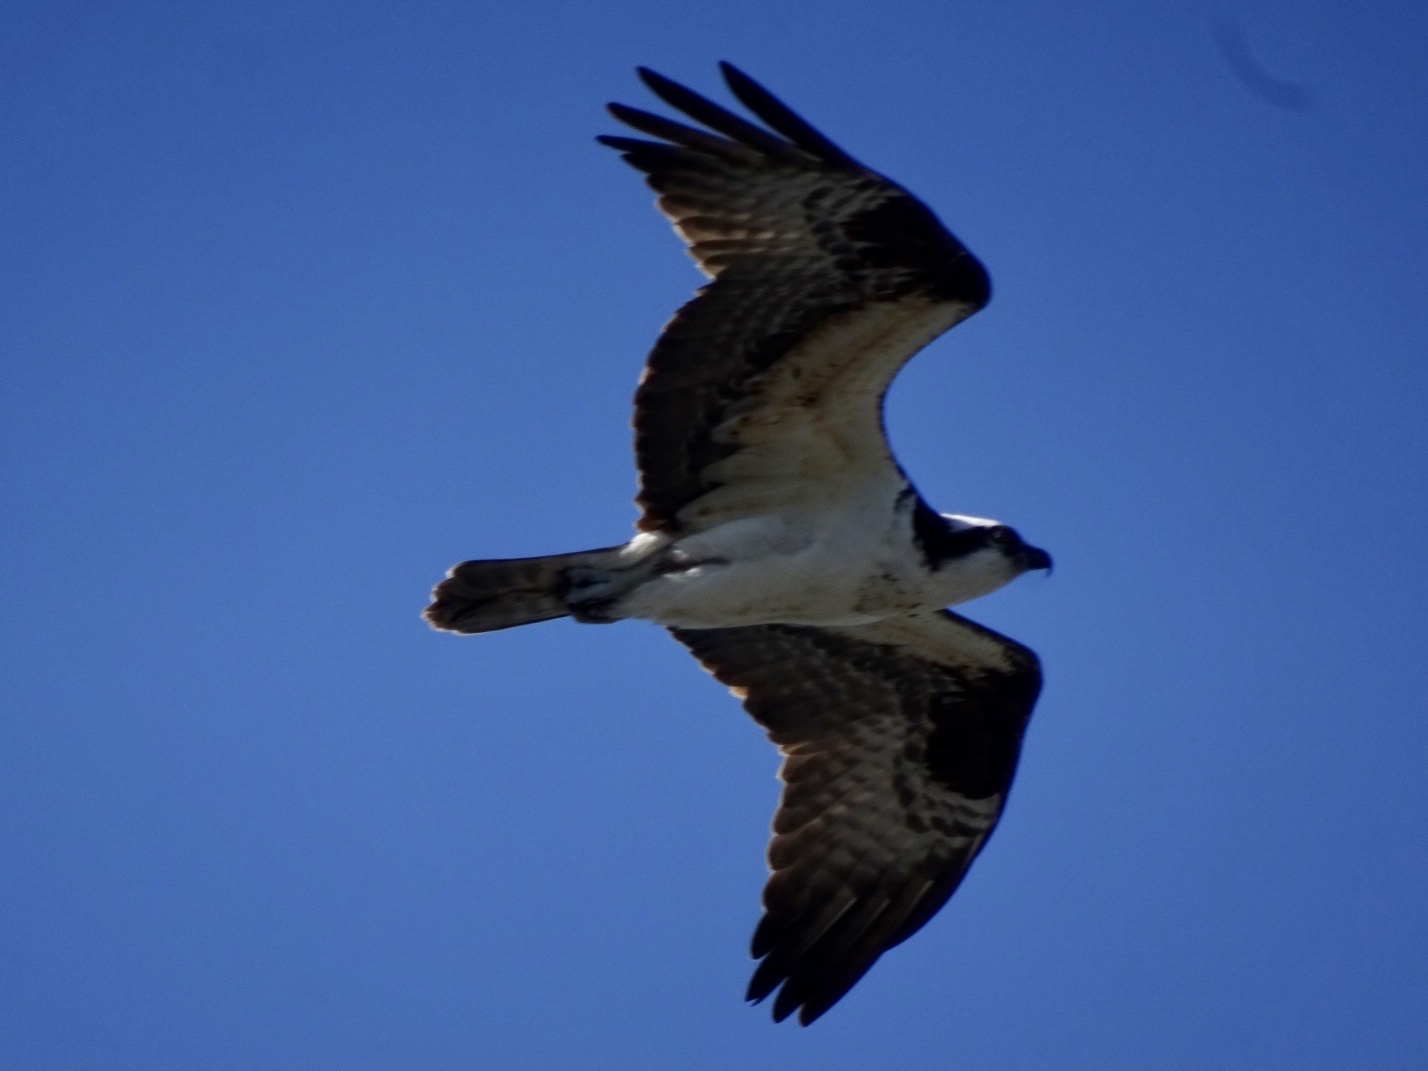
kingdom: Animalia
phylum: Chordata
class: Aves
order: Accipitriformes
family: Pandionidae
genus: Pandion
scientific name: Pandion haliaetus
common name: Osprey
